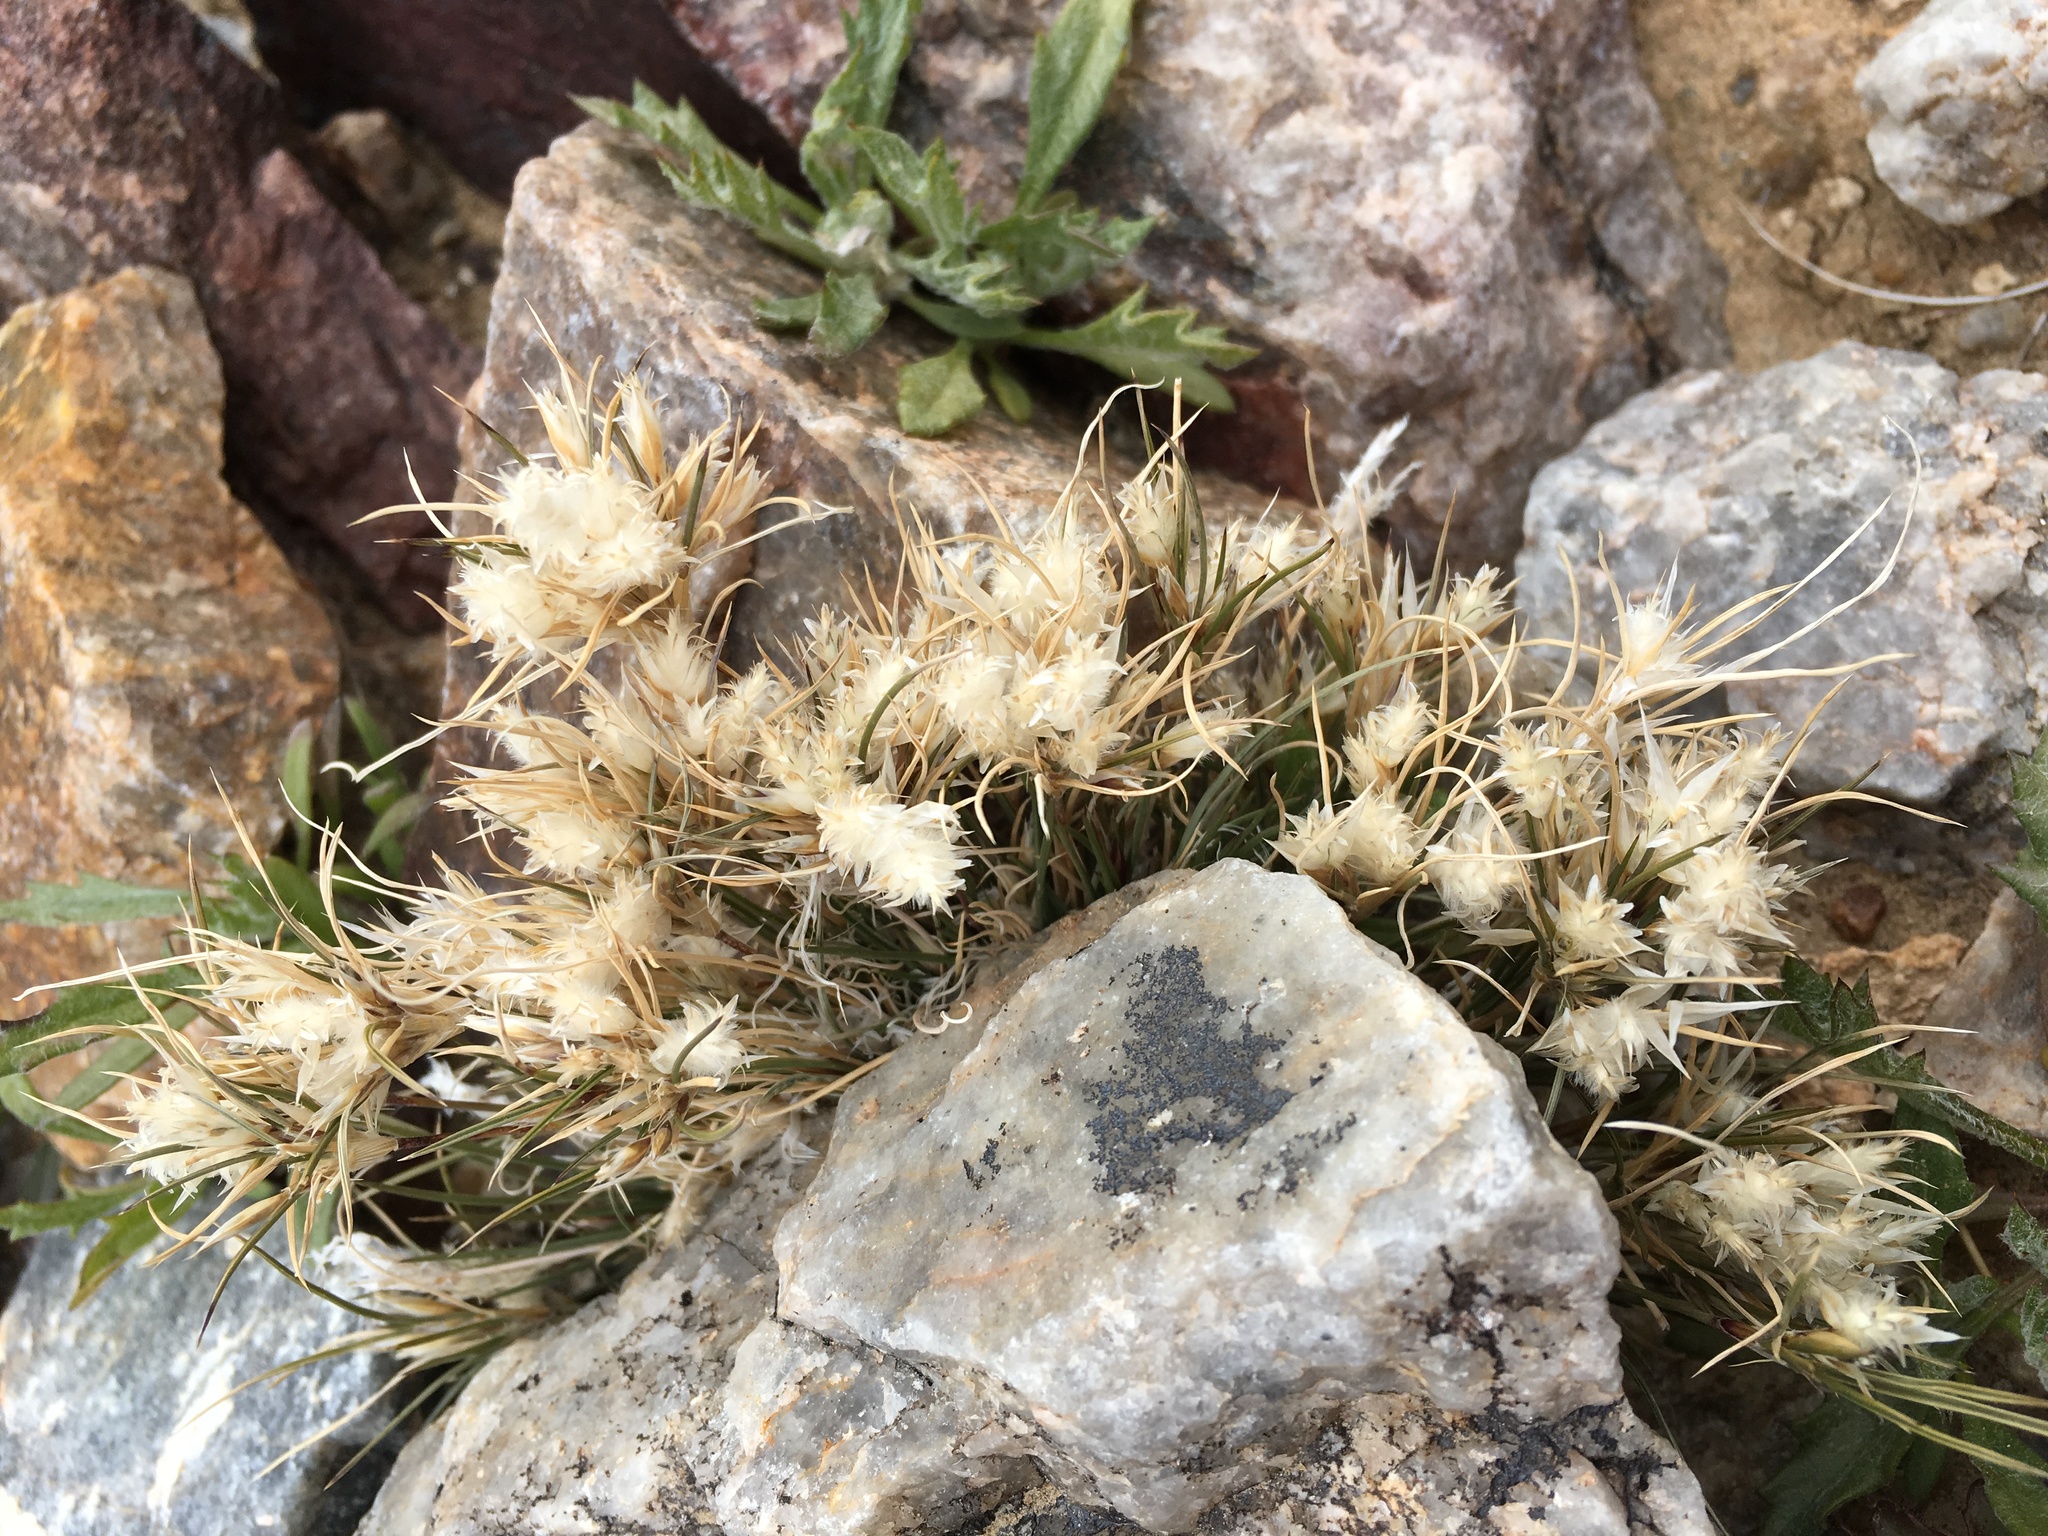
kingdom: Plantae
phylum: Tracheophyta
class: Liliopsida
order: Poales
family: Poaceae
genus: Dasyochloa
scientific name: Dasyochloa pulchella
